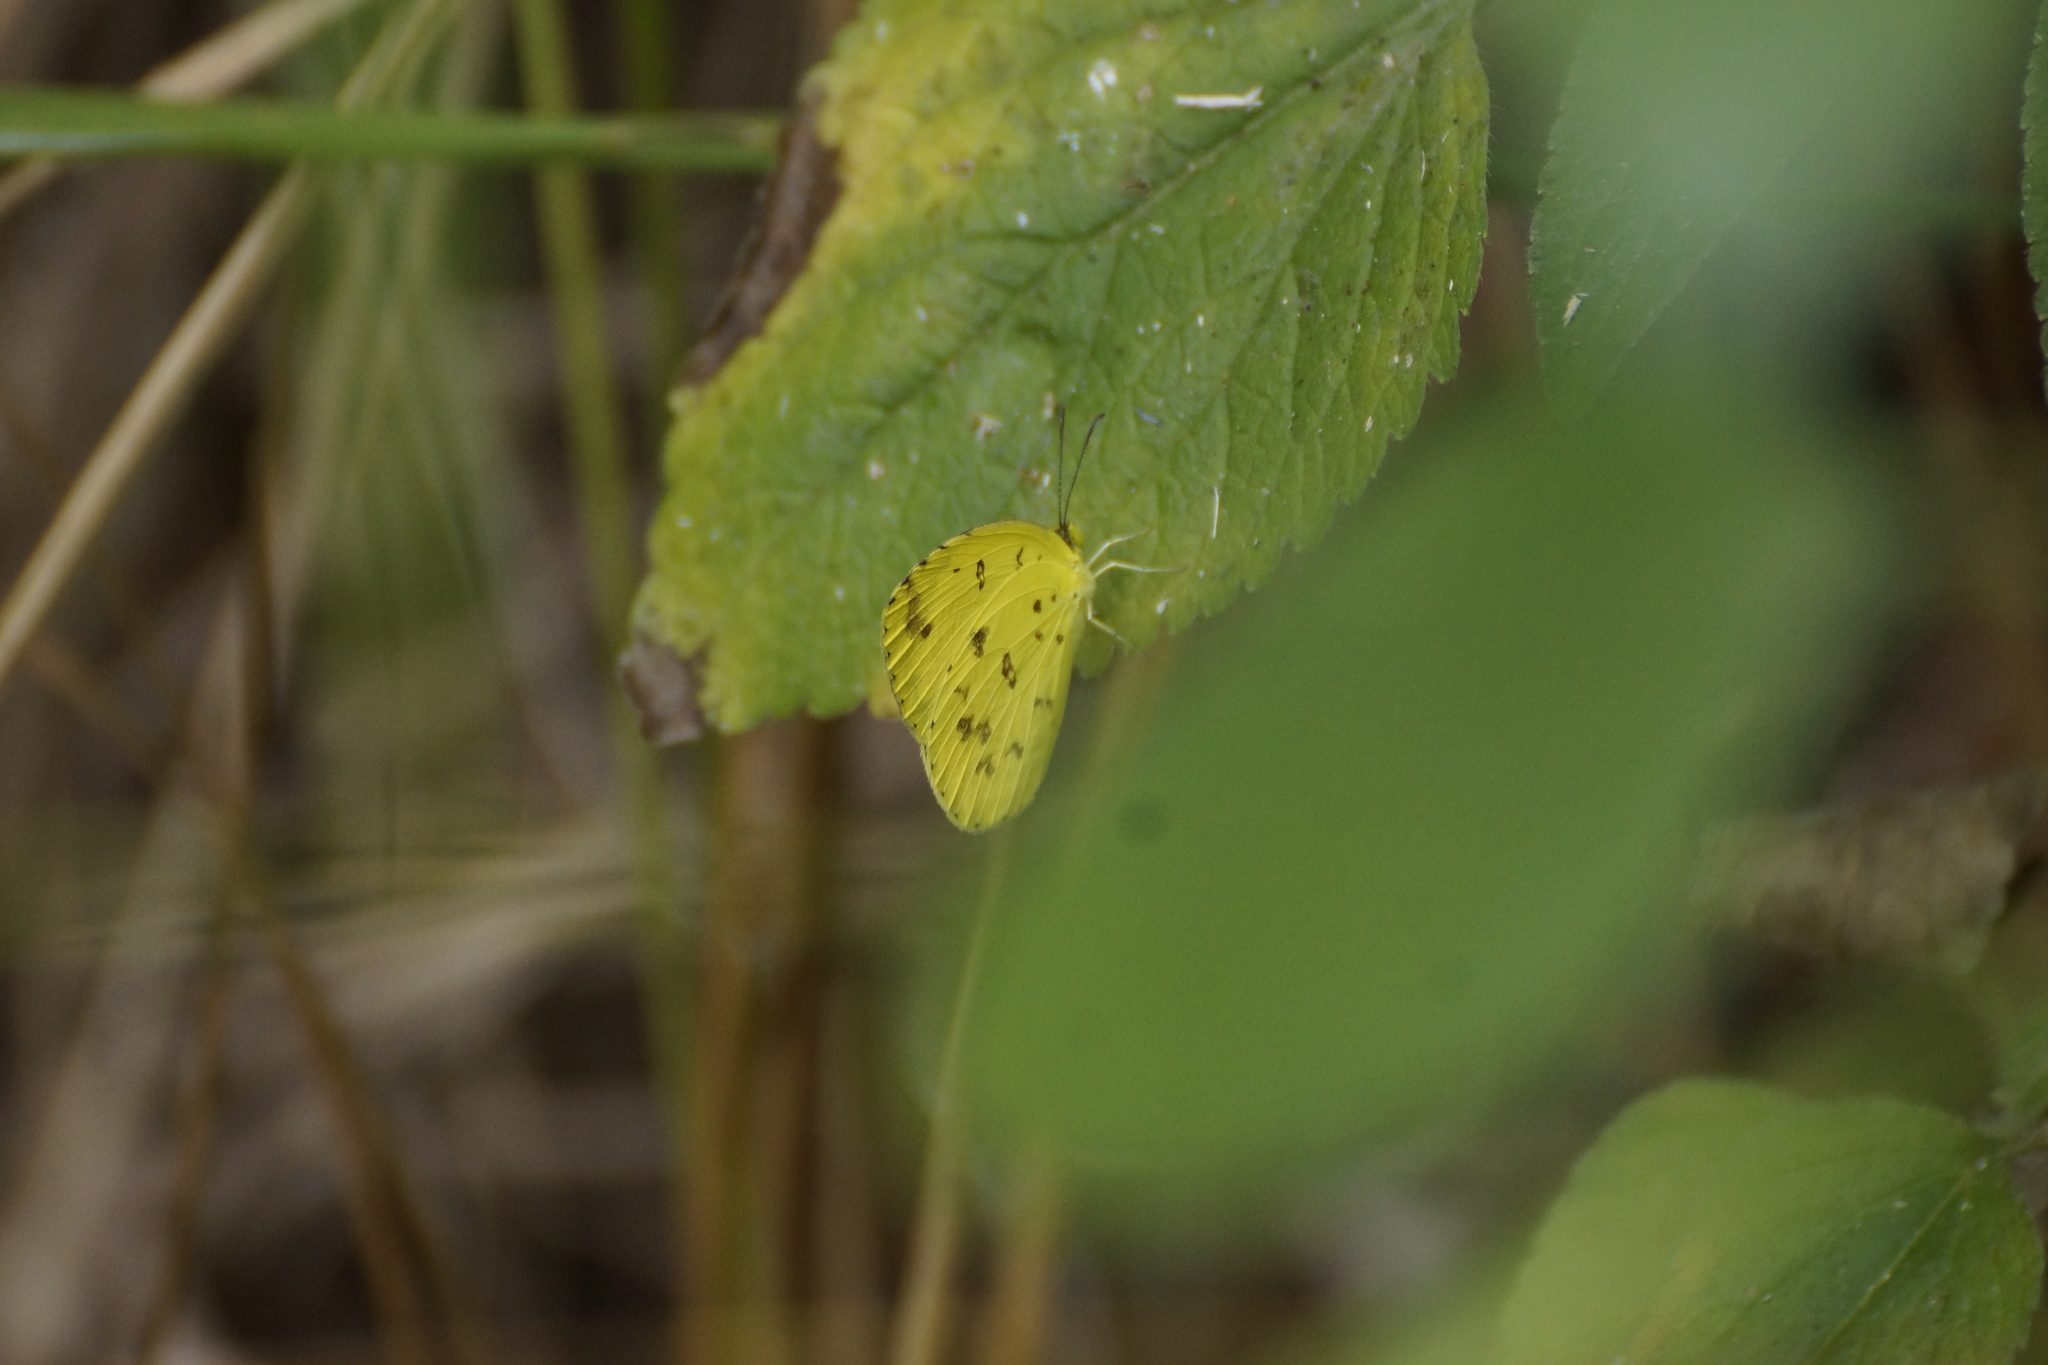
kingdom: Animalia
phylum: Arthropoda
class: Insecta
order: Lepidoptera
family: Pieridae
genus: Eurema
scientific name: Eurema hecabe
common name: Pale grass yellow
